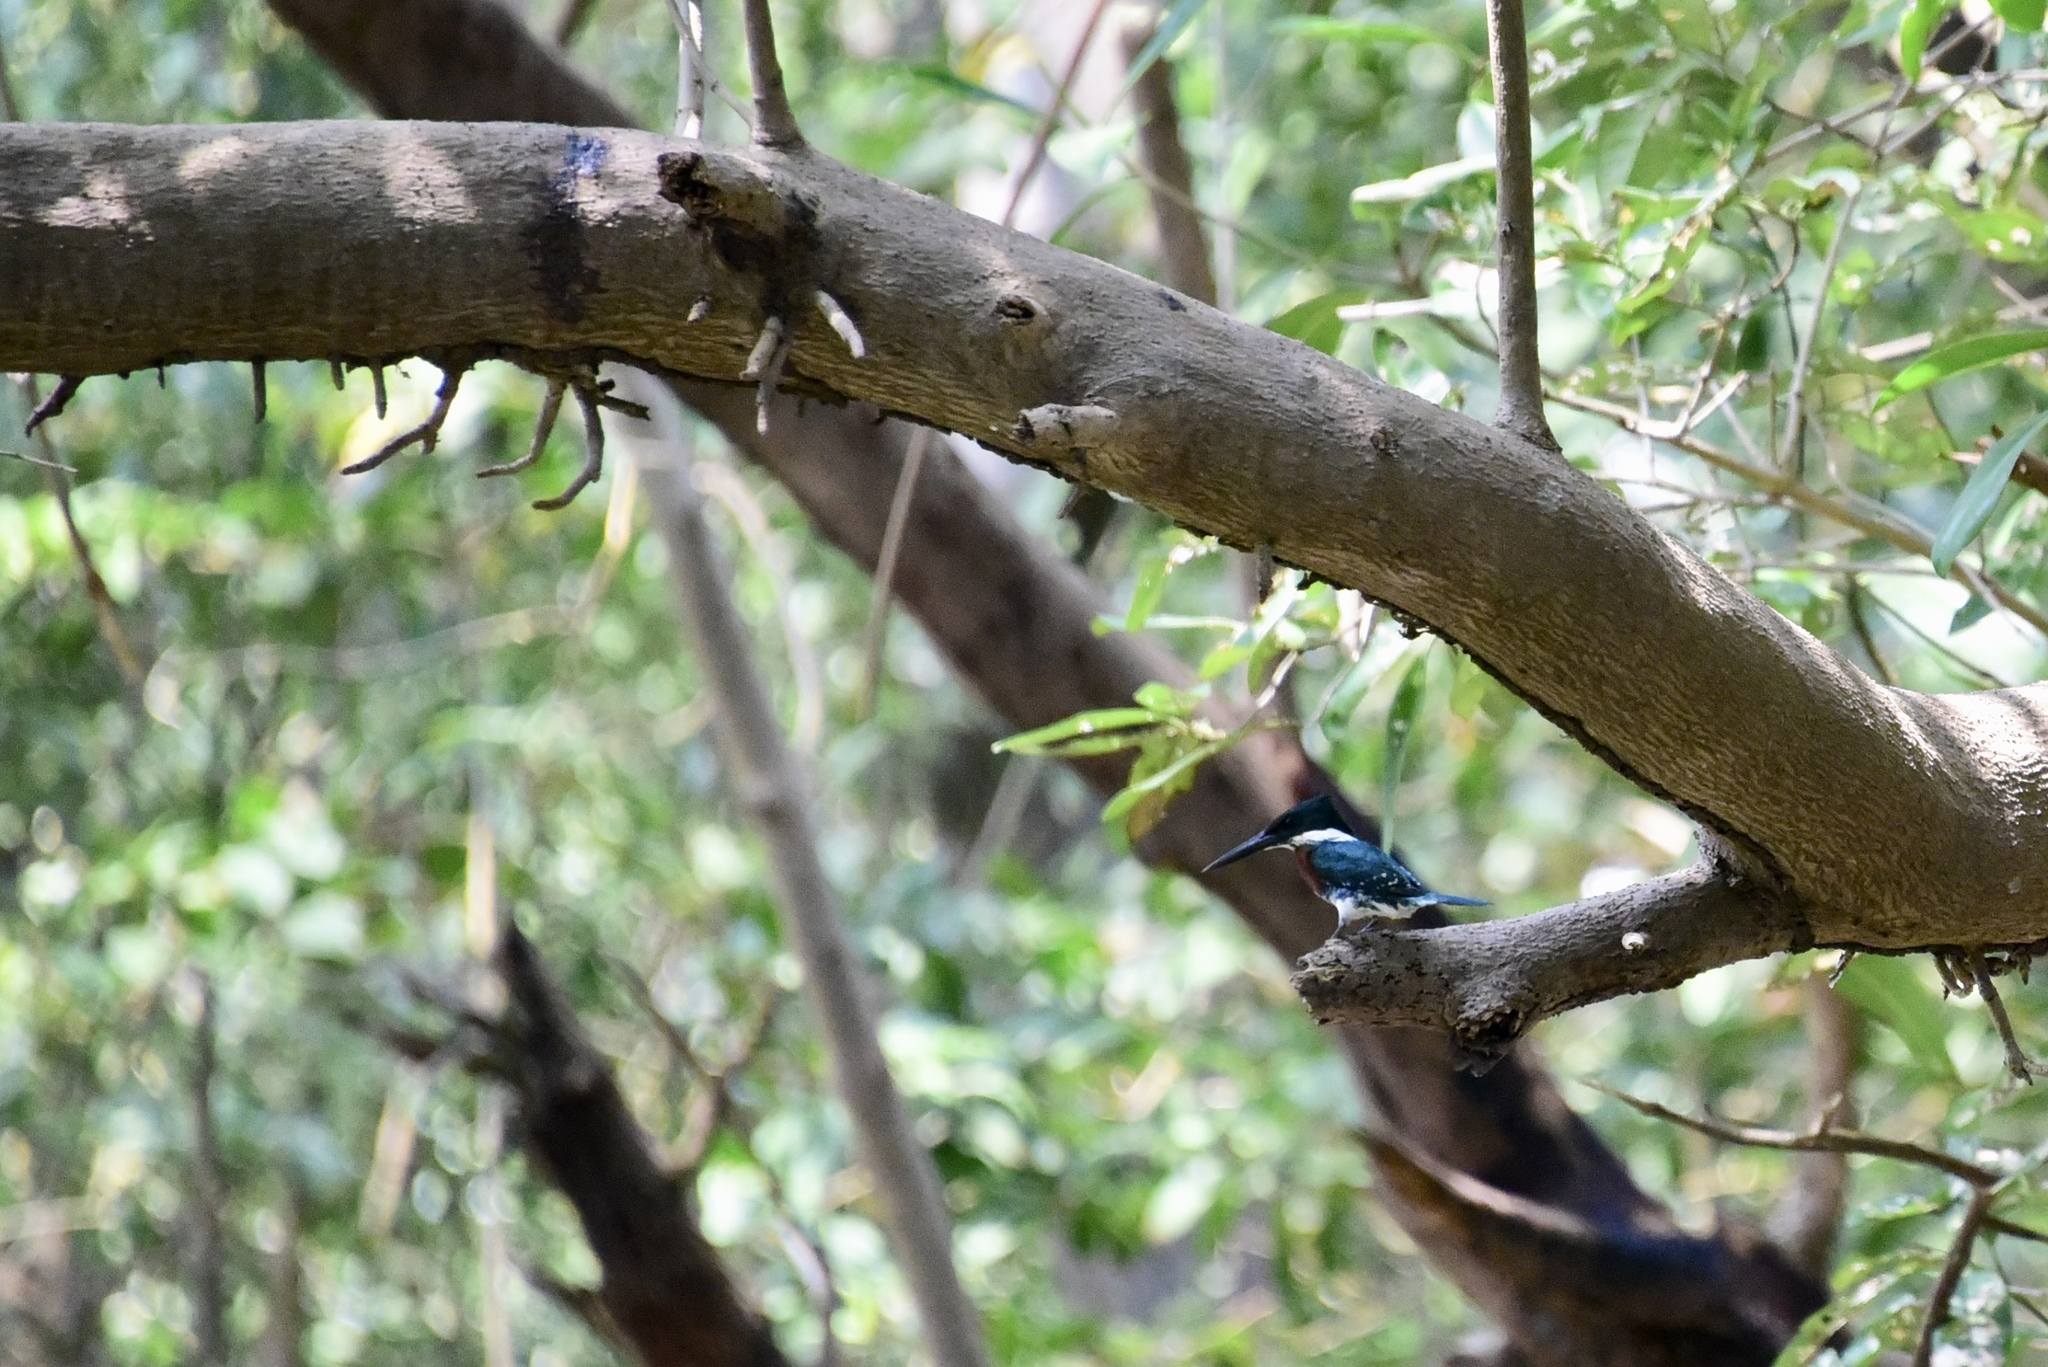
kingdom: Animalia
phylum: Chordata
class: Aves
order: Coraciiformes
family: Alcedinidae
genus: Chloroceryle
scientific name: Chloroceryle amazona
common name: Amazon kingfisher
